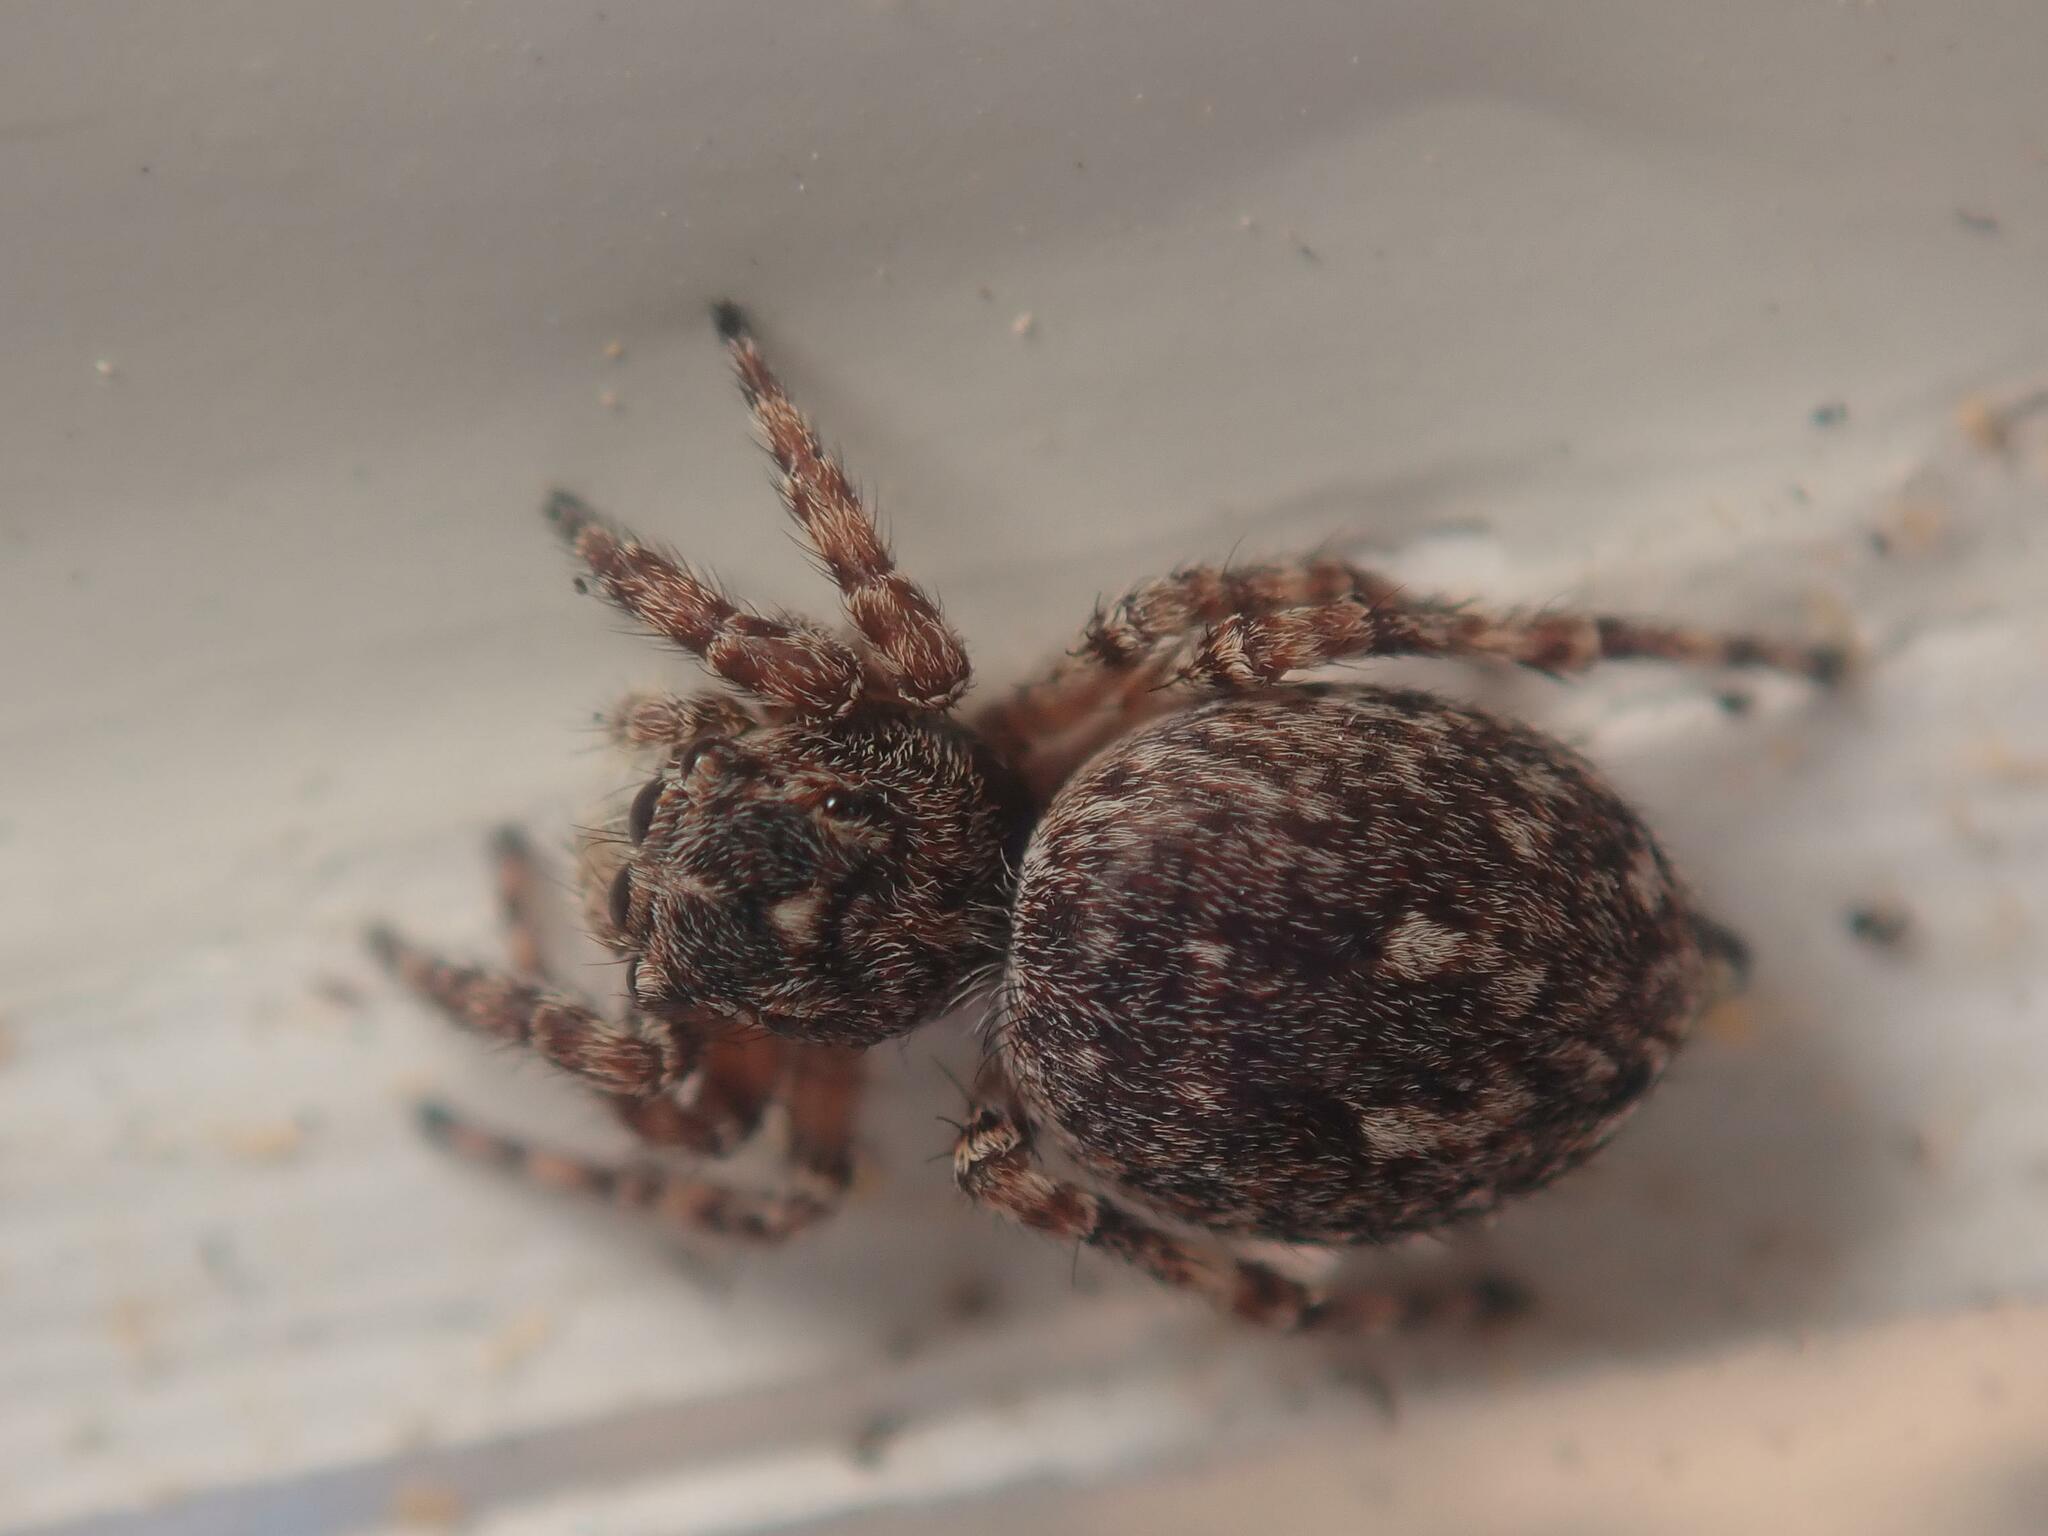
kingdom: Animalia
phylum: Arthropoda
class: Arachnida
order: Araneae
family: Salticidae
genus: Attulus
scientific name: Attulus pubescens
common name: Jumping spider
